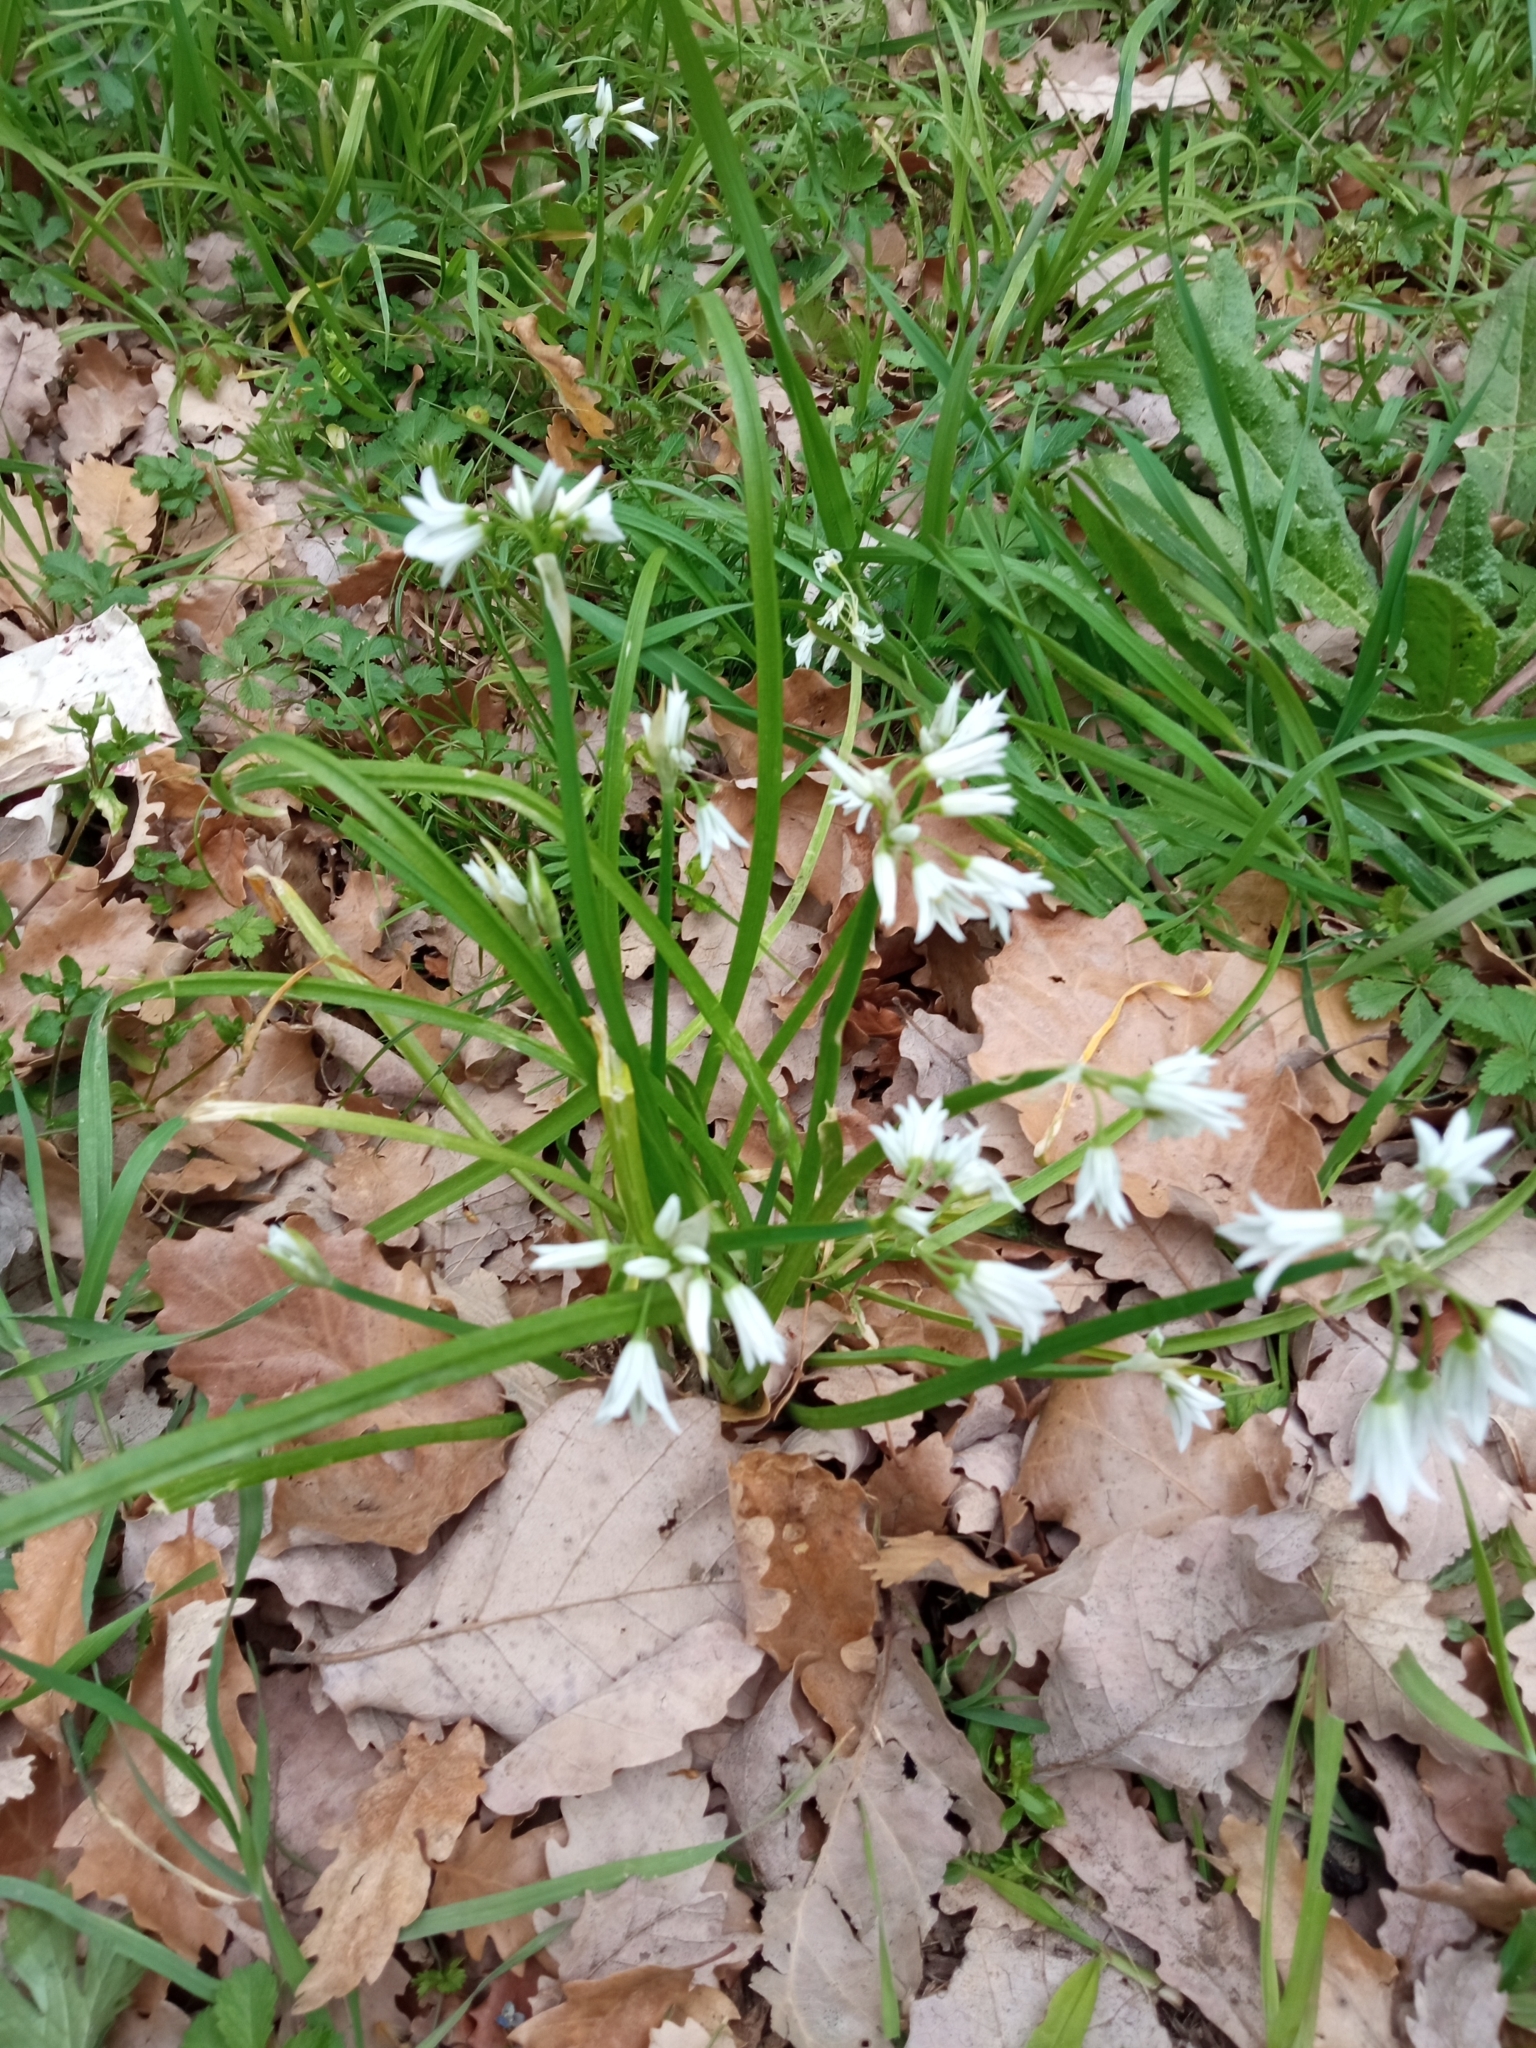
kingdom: Plantae
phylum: Tracheophyta
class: Liliopsida
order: Asparagales
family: Amaryllidaceae
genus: Allium
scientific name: Allium triquetrum
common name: Three-cornered garlic
